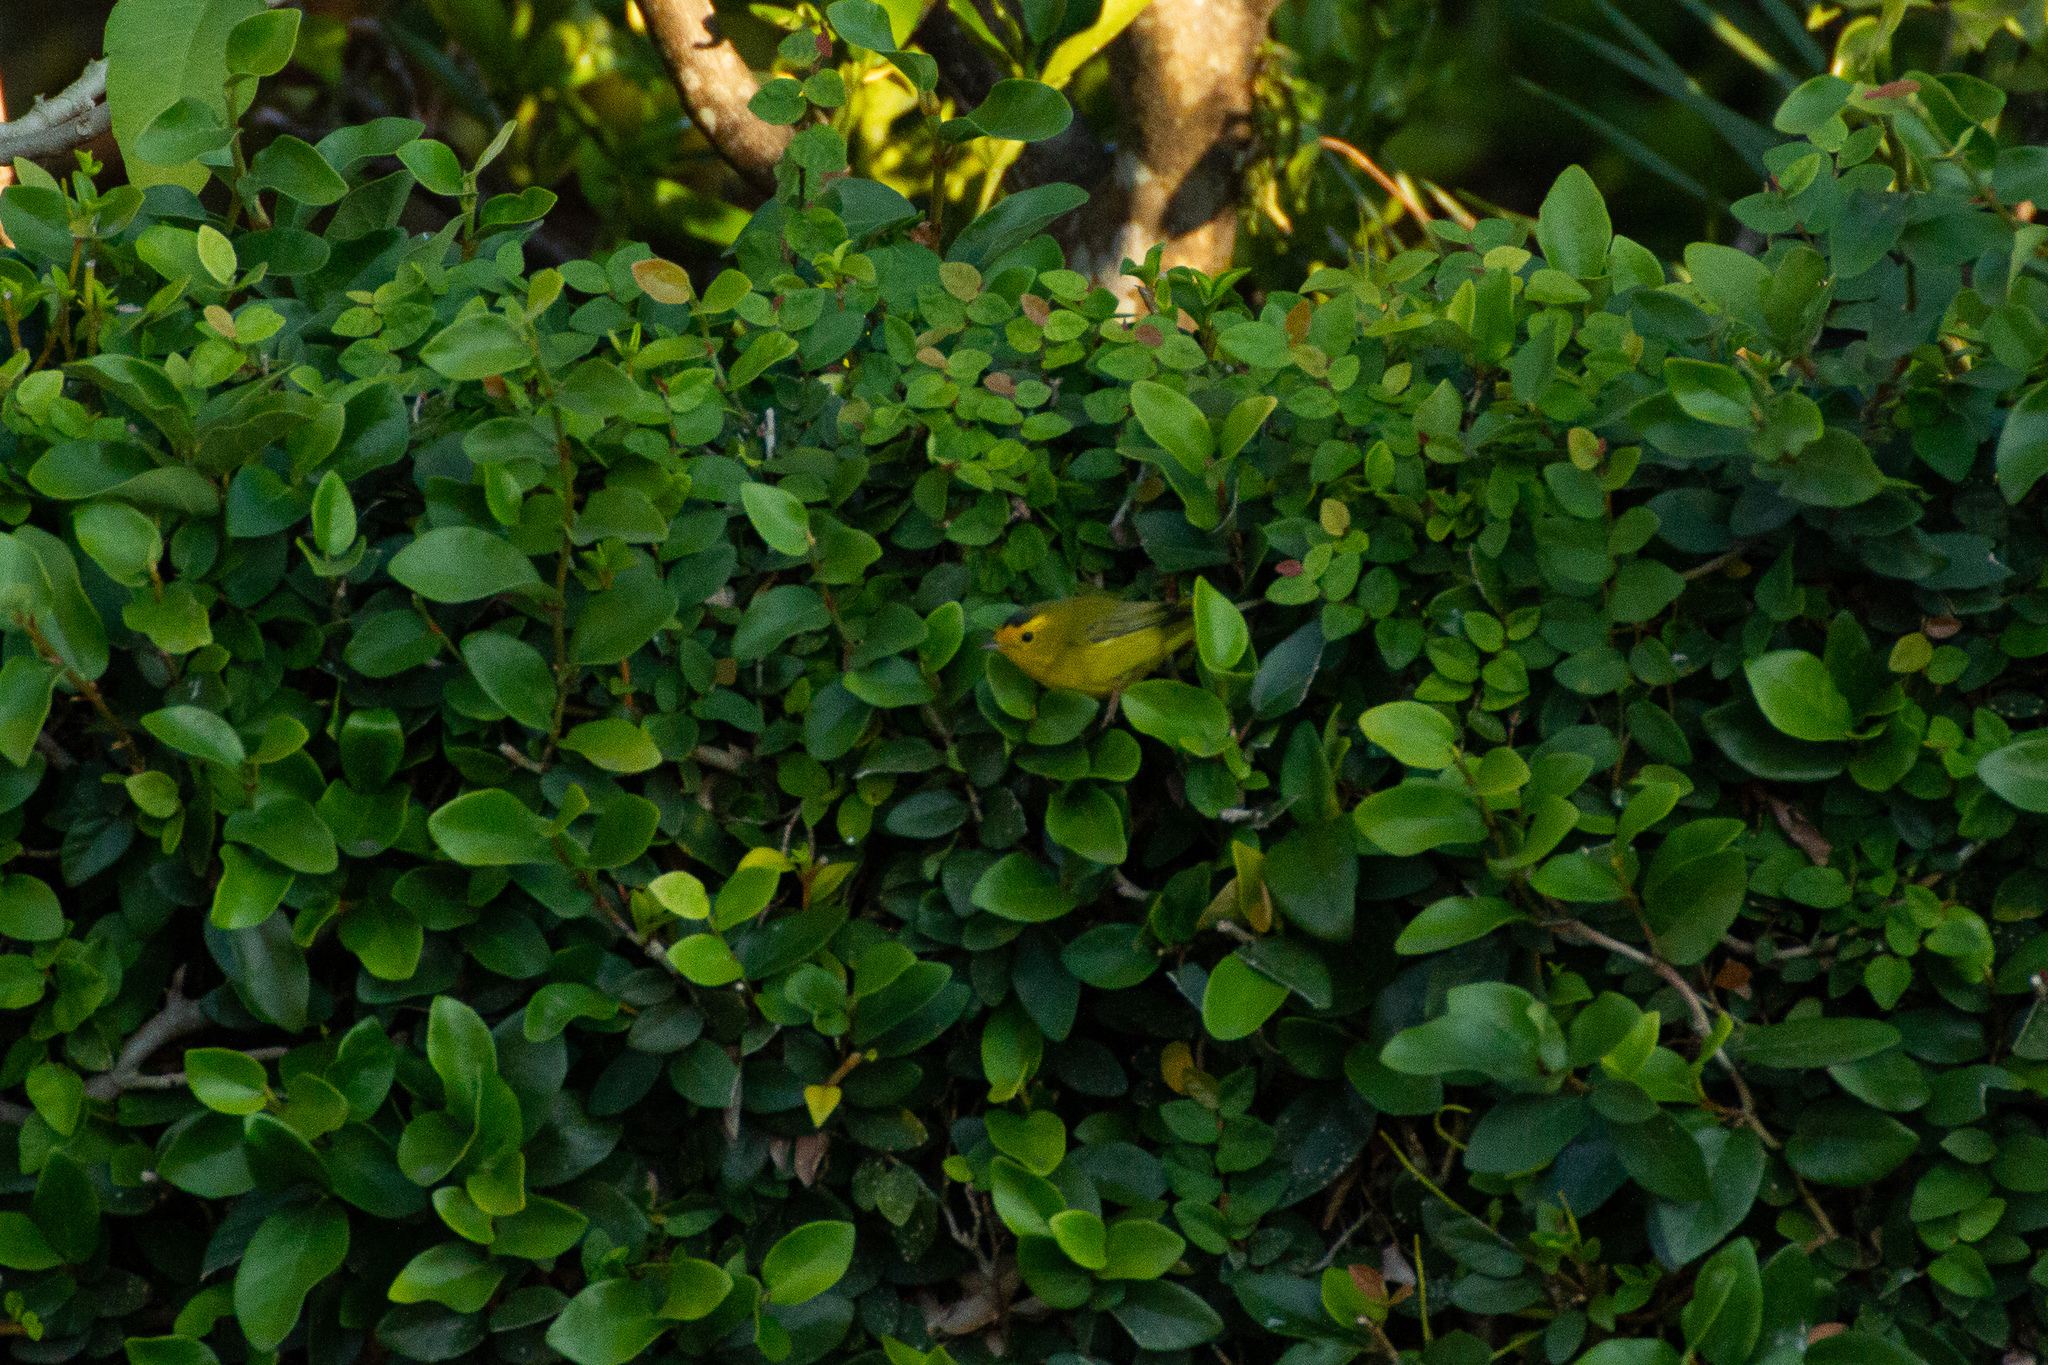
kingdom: Animalia
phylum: Chordata
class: Aves
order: Passeriformes
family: Parulidae
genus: Cardellina
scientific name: Cardellina pusilla
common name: Wilson's warbler
